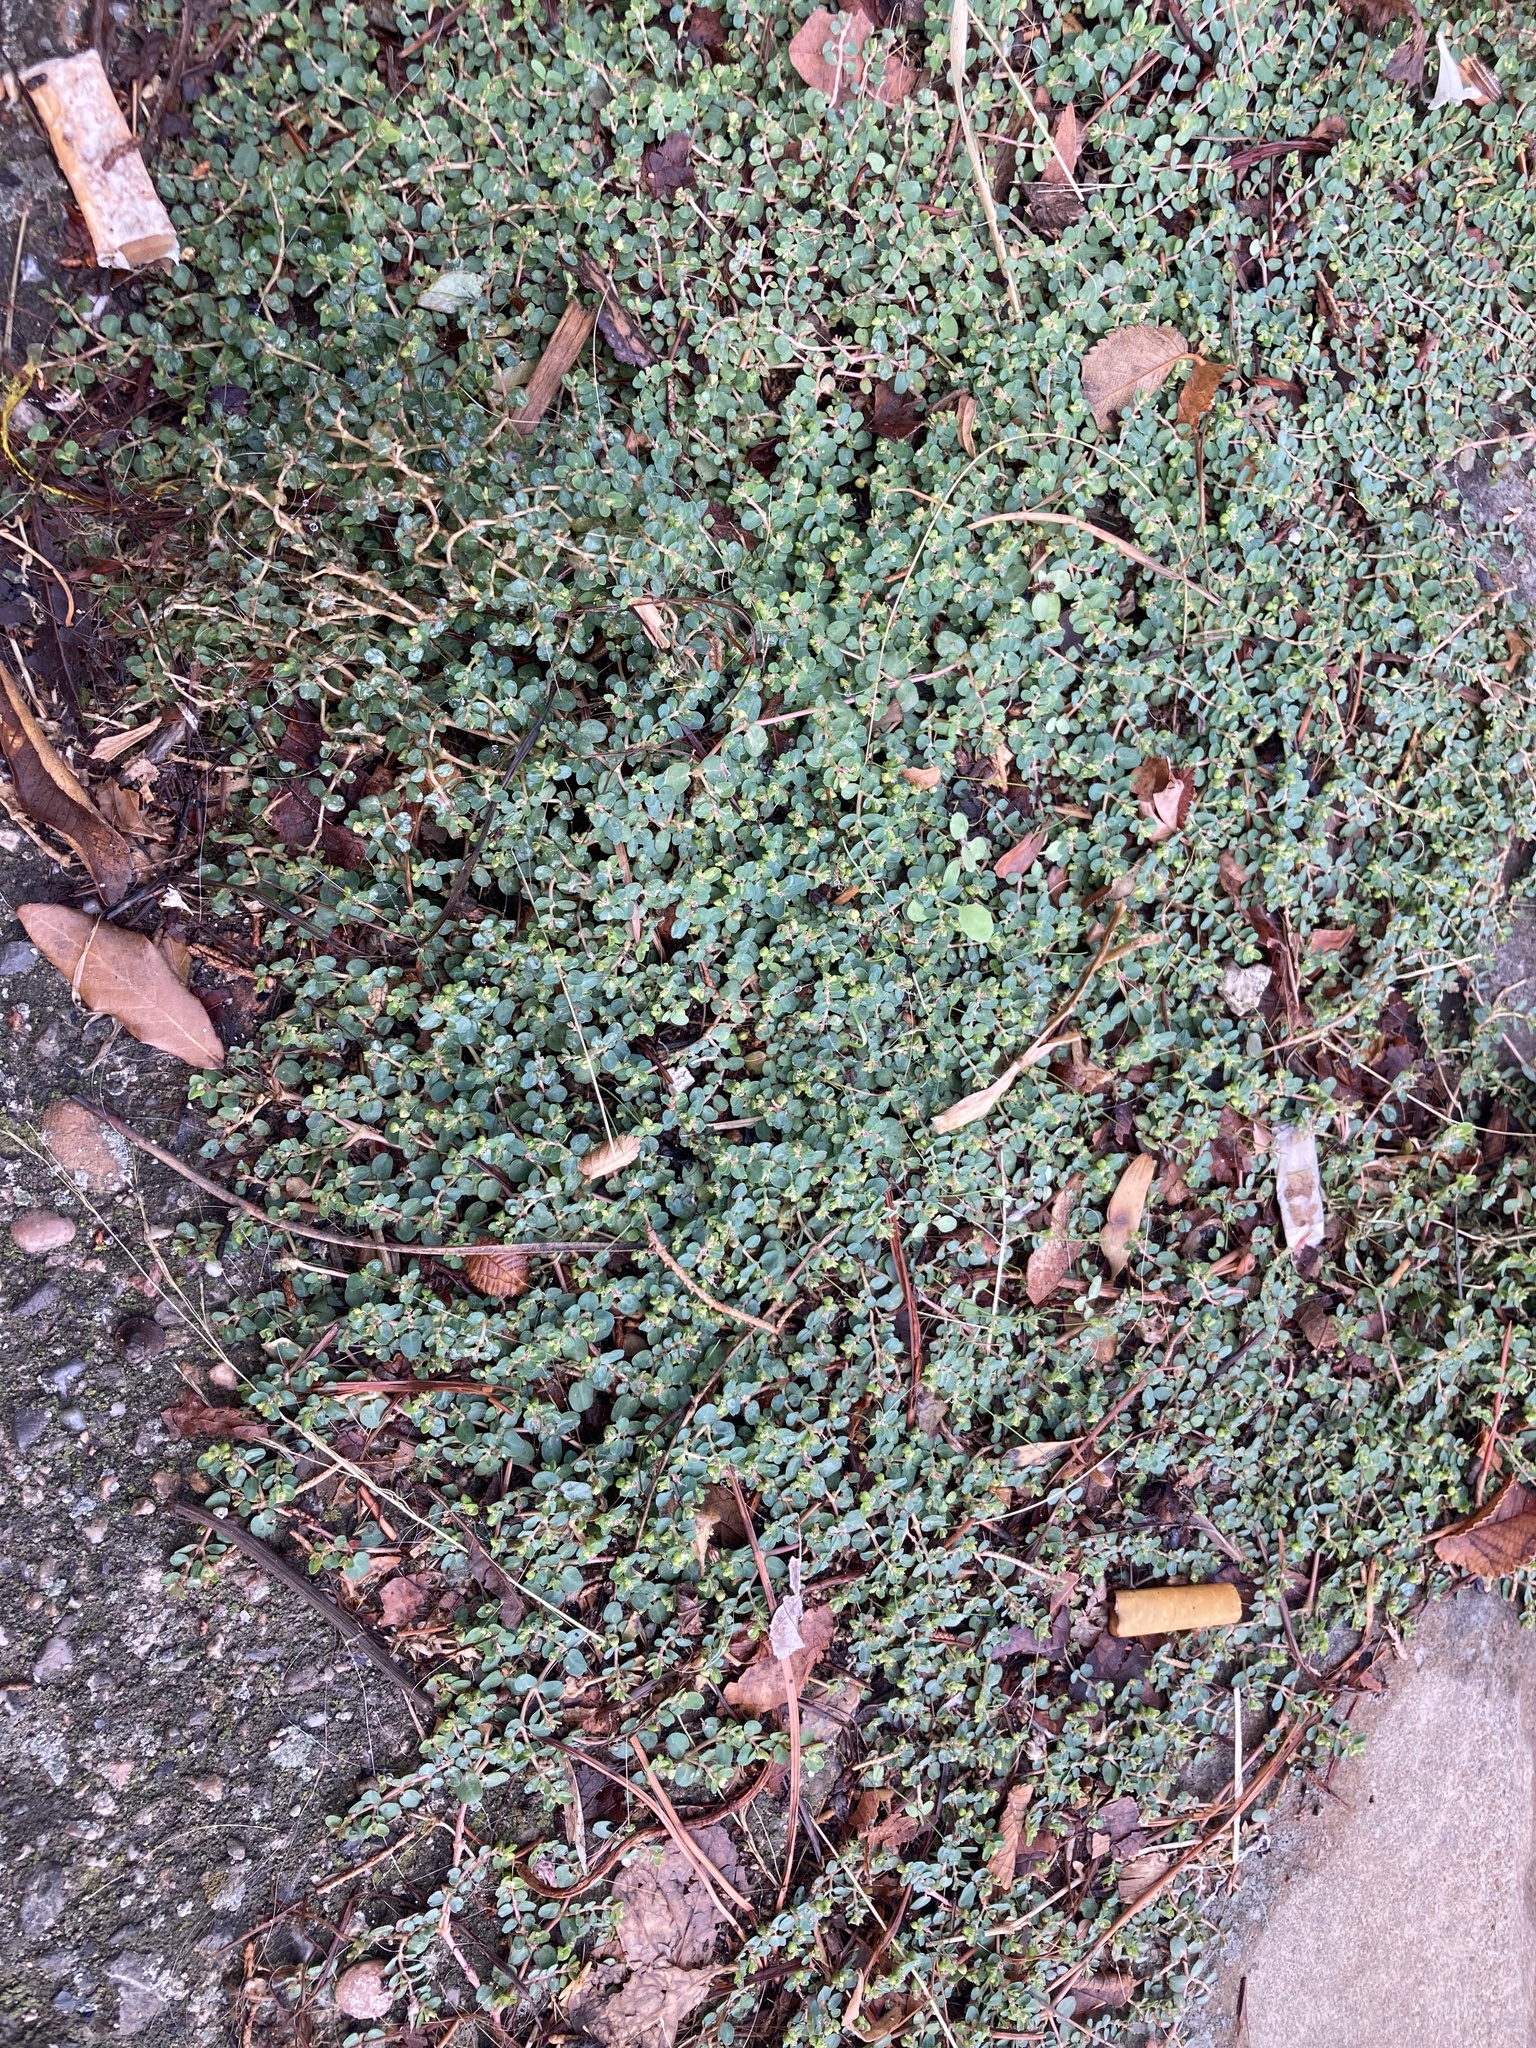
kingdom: Plantae
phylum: Tracheophyta
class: Magnoliopsida
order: Malpighiales
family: Euphorbiaceae
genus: Euphorbia
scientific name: Euphorbia serpens
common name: Matted sandmat
